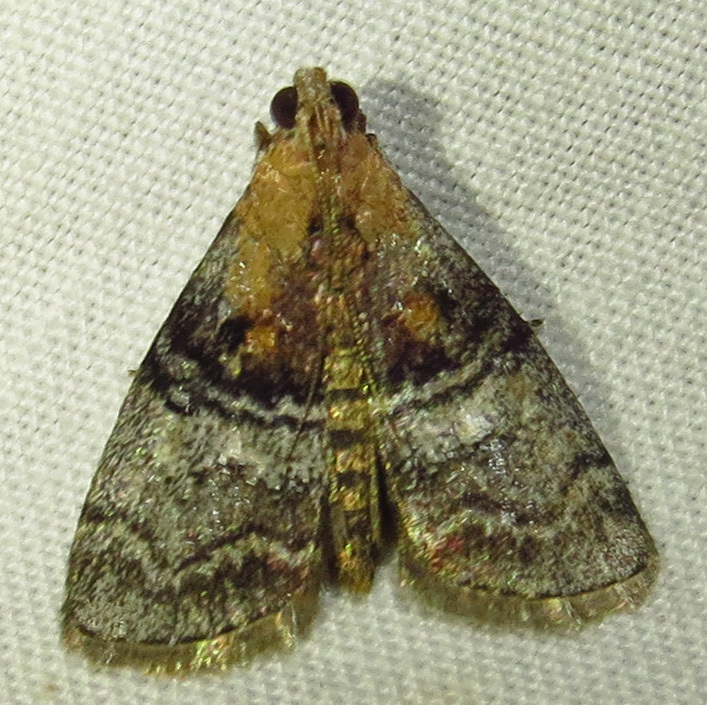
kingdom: Animalia
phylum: Arthropoda
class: Insecta
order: Lepidoptera
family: Pyralidae
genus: Pococera
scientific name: Pococera expandens
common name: Striped oak webworm moth
